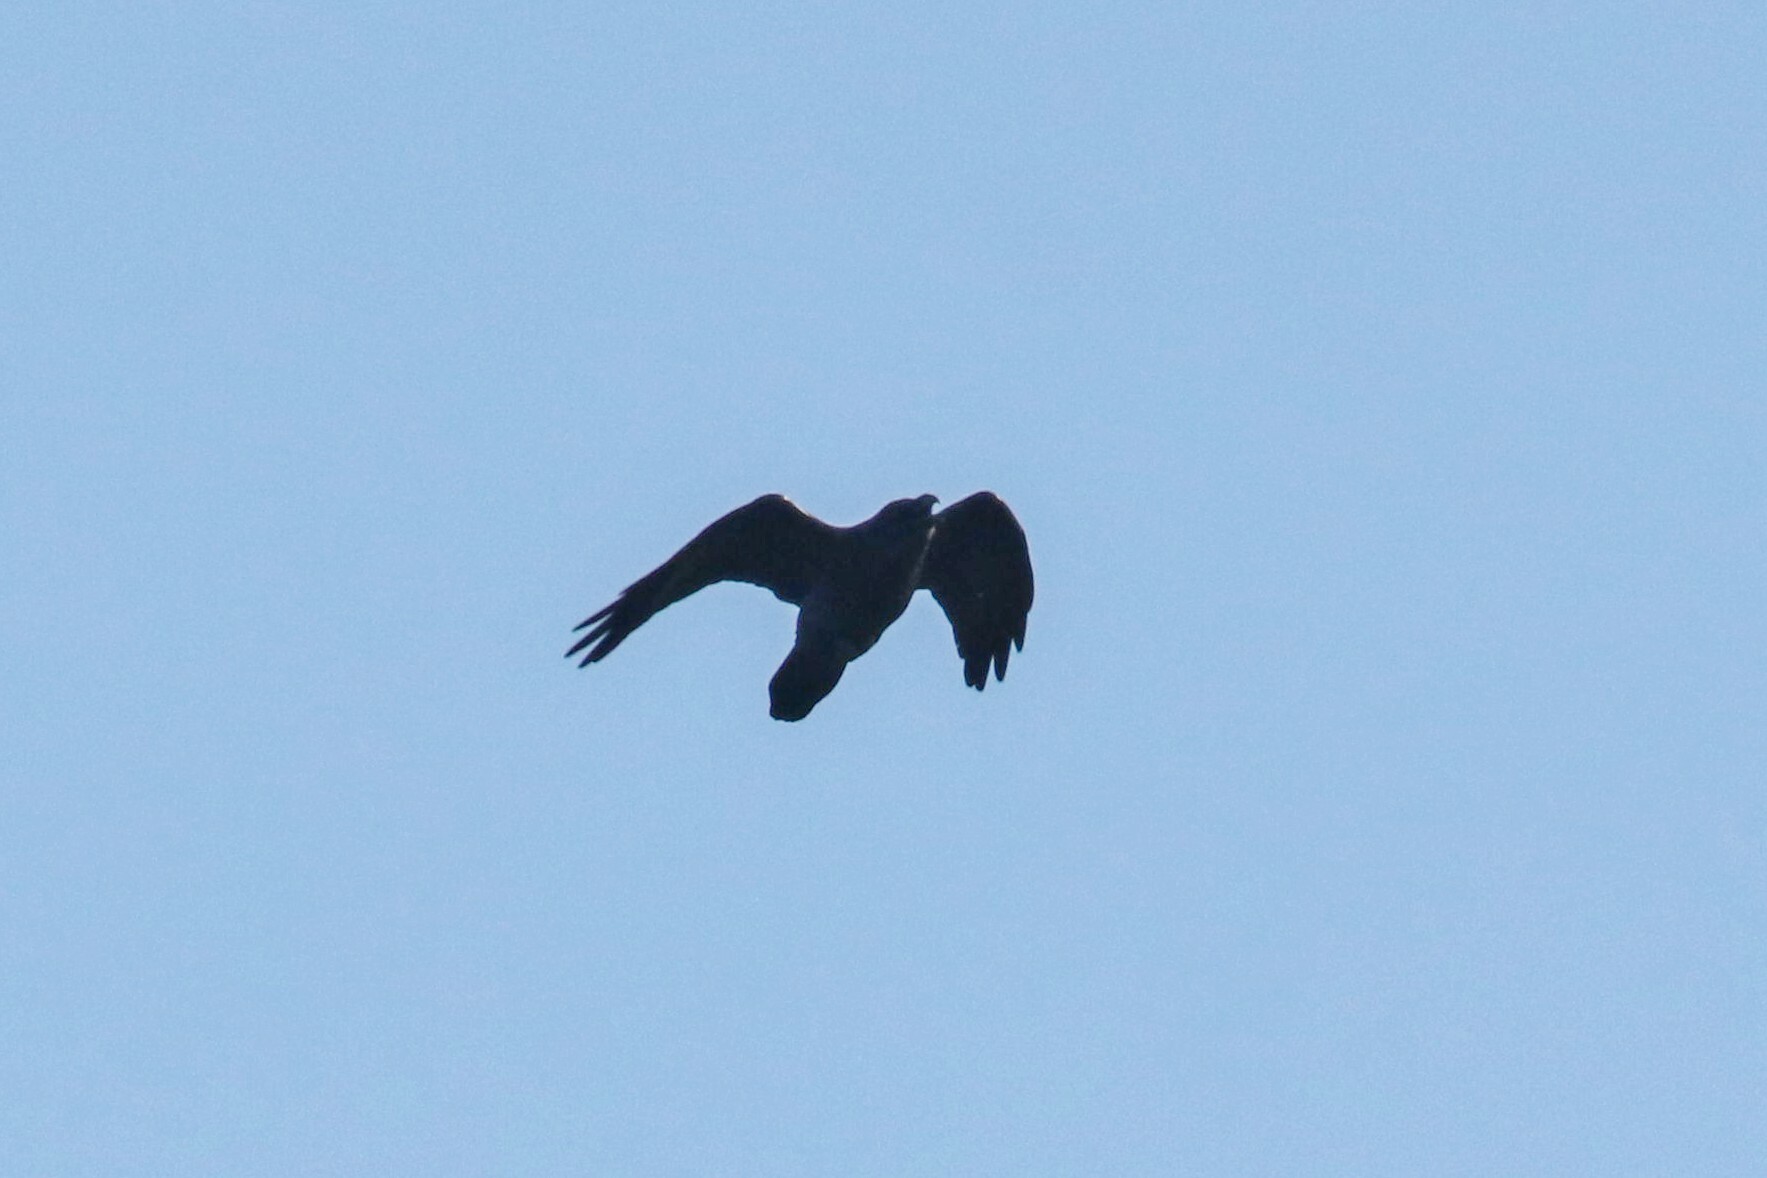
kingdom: Animalia
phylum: Chordata
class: Aves
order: Passeriformes
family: Corvidae
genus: Corvus
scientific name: Corvus corax
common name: Common raven
